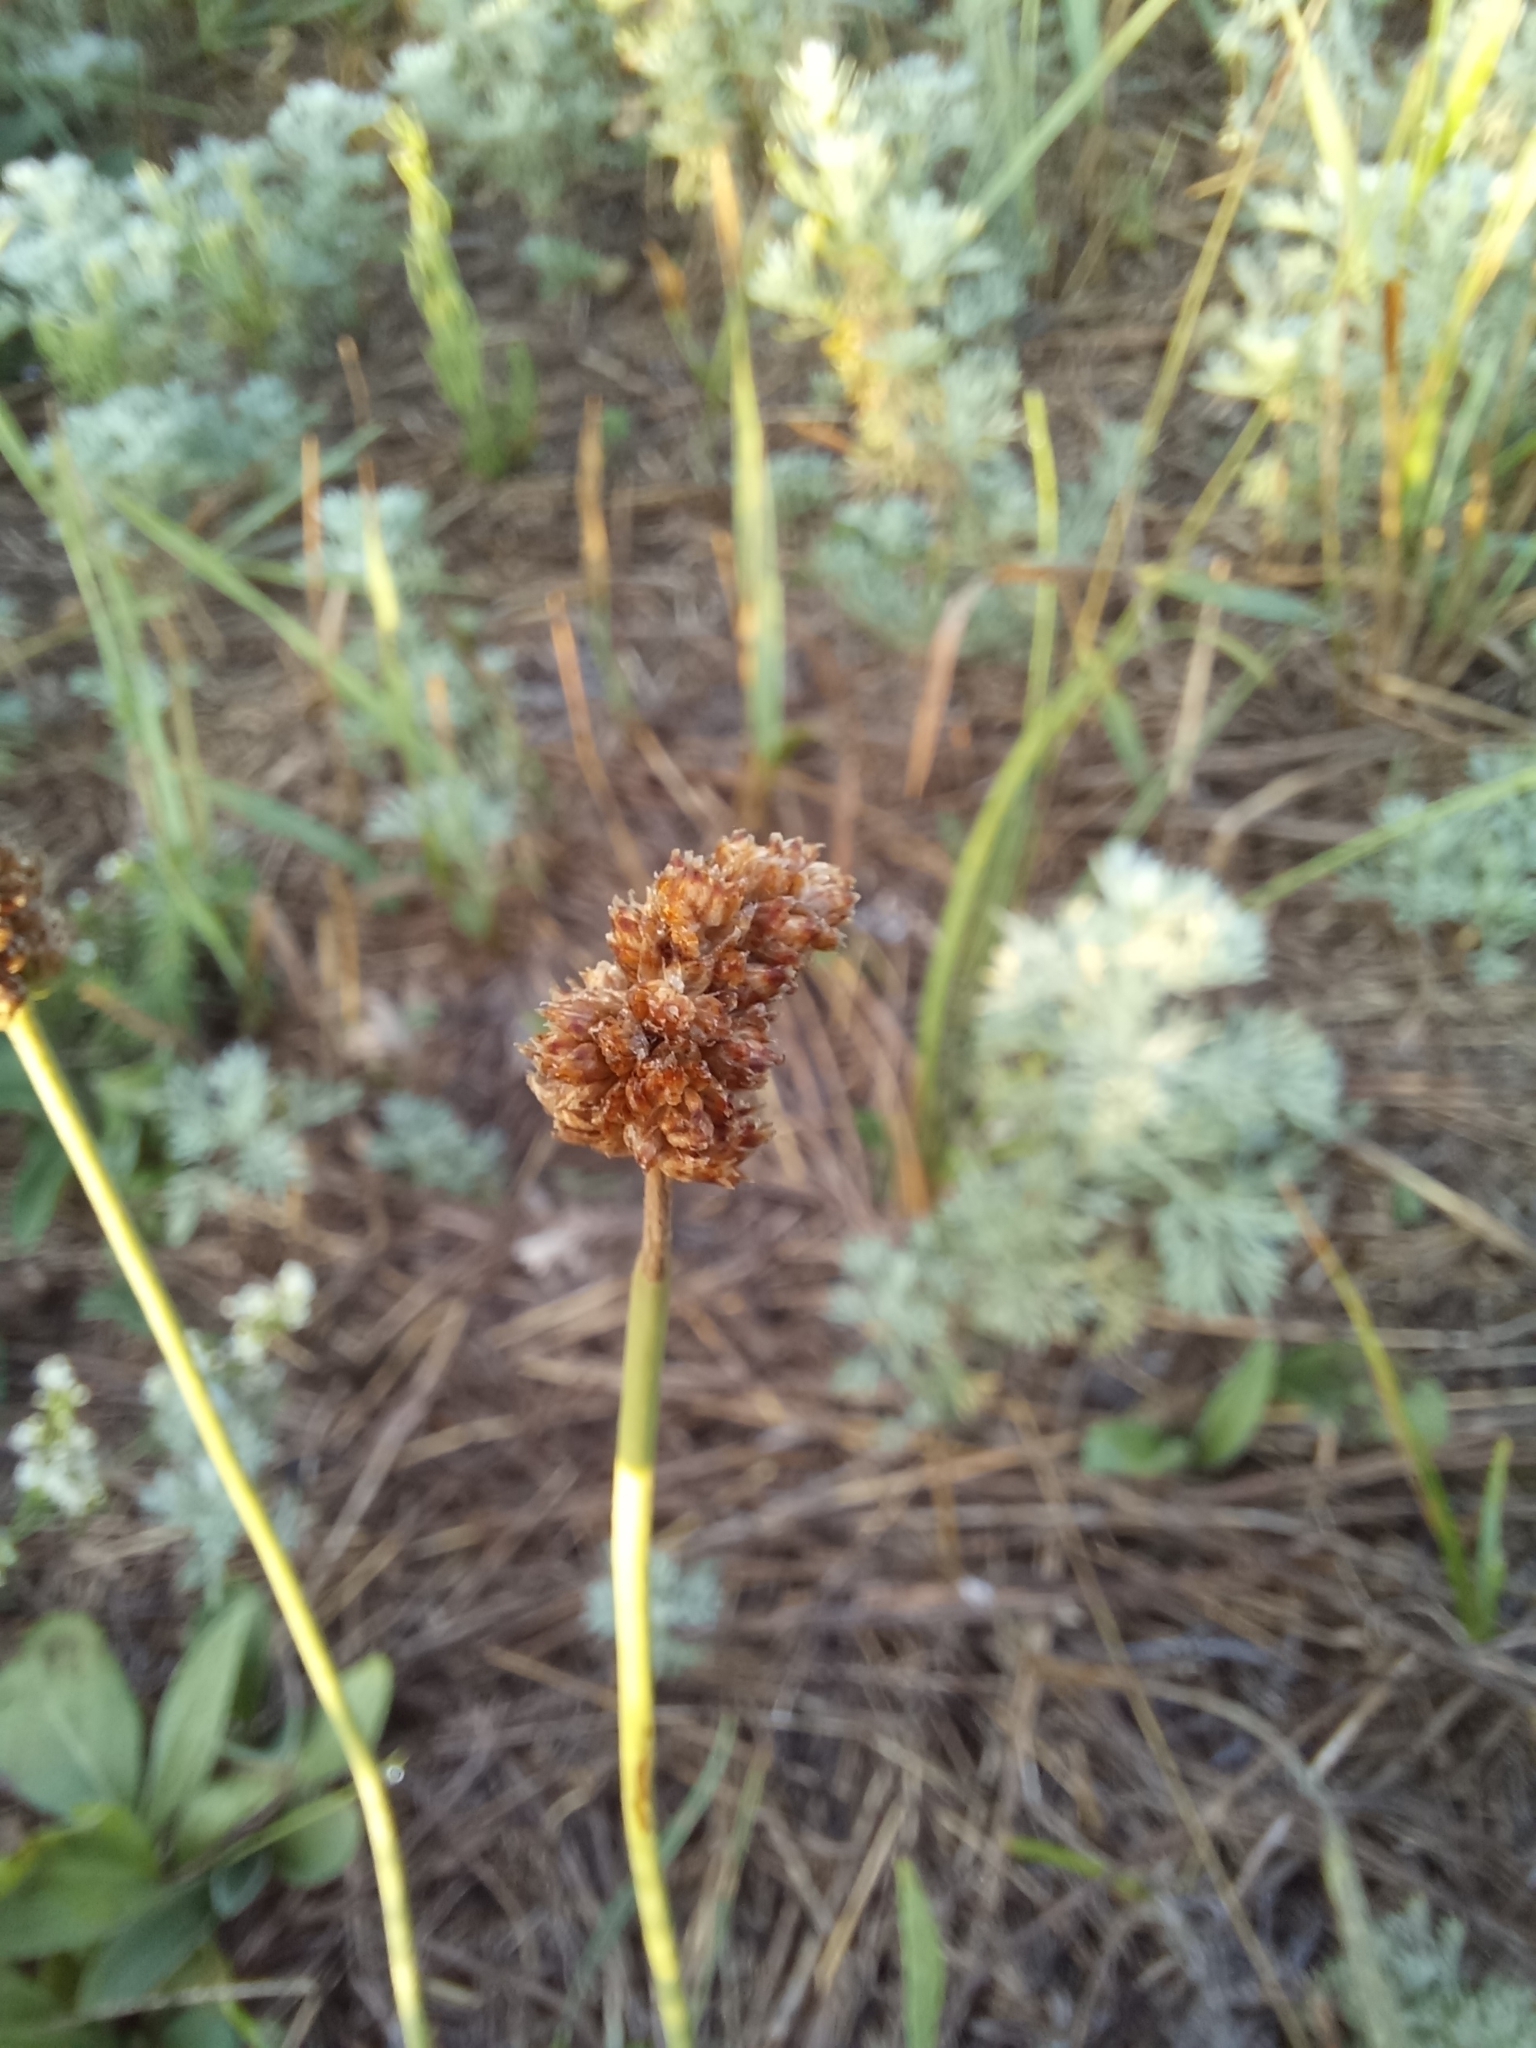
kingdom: Plantae
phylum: Tracheophyta
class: Magnoliopsida
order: Lamiales
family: Plantaginaceae
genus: Plantago
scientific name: Plantago lanceolata
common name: Ribwort plantain
